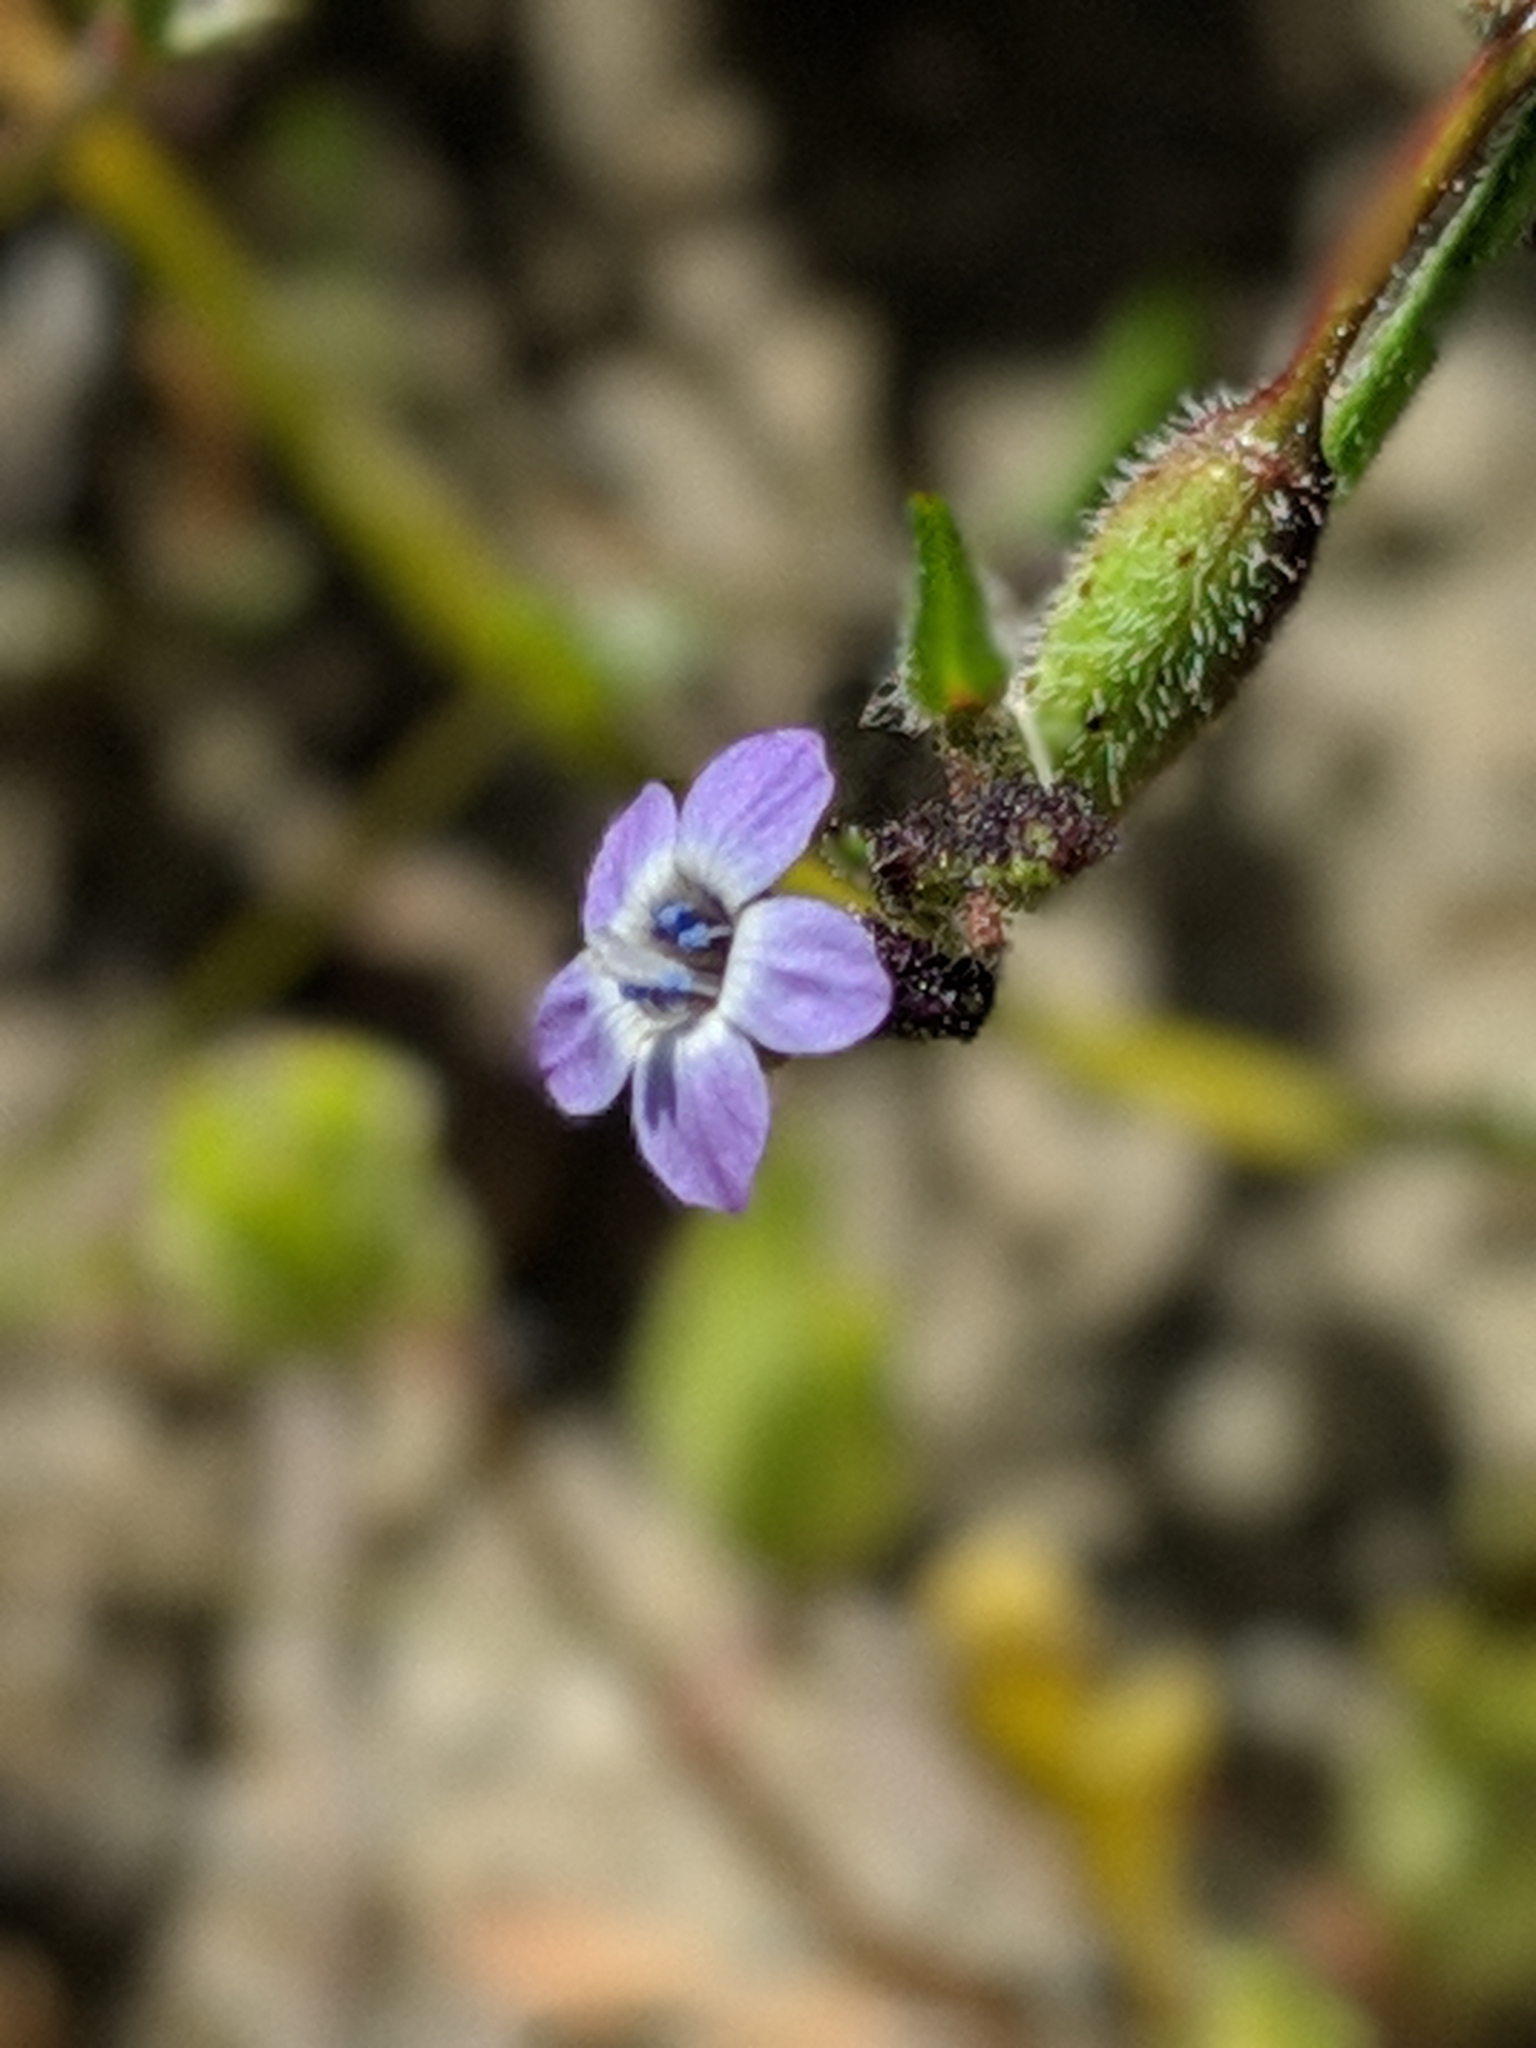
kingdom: Plantae
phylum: Tracheophyta
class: Magnoliopsida
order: Ericales
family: Polemoniaceae
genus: Gilia
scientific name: Gilia minor
